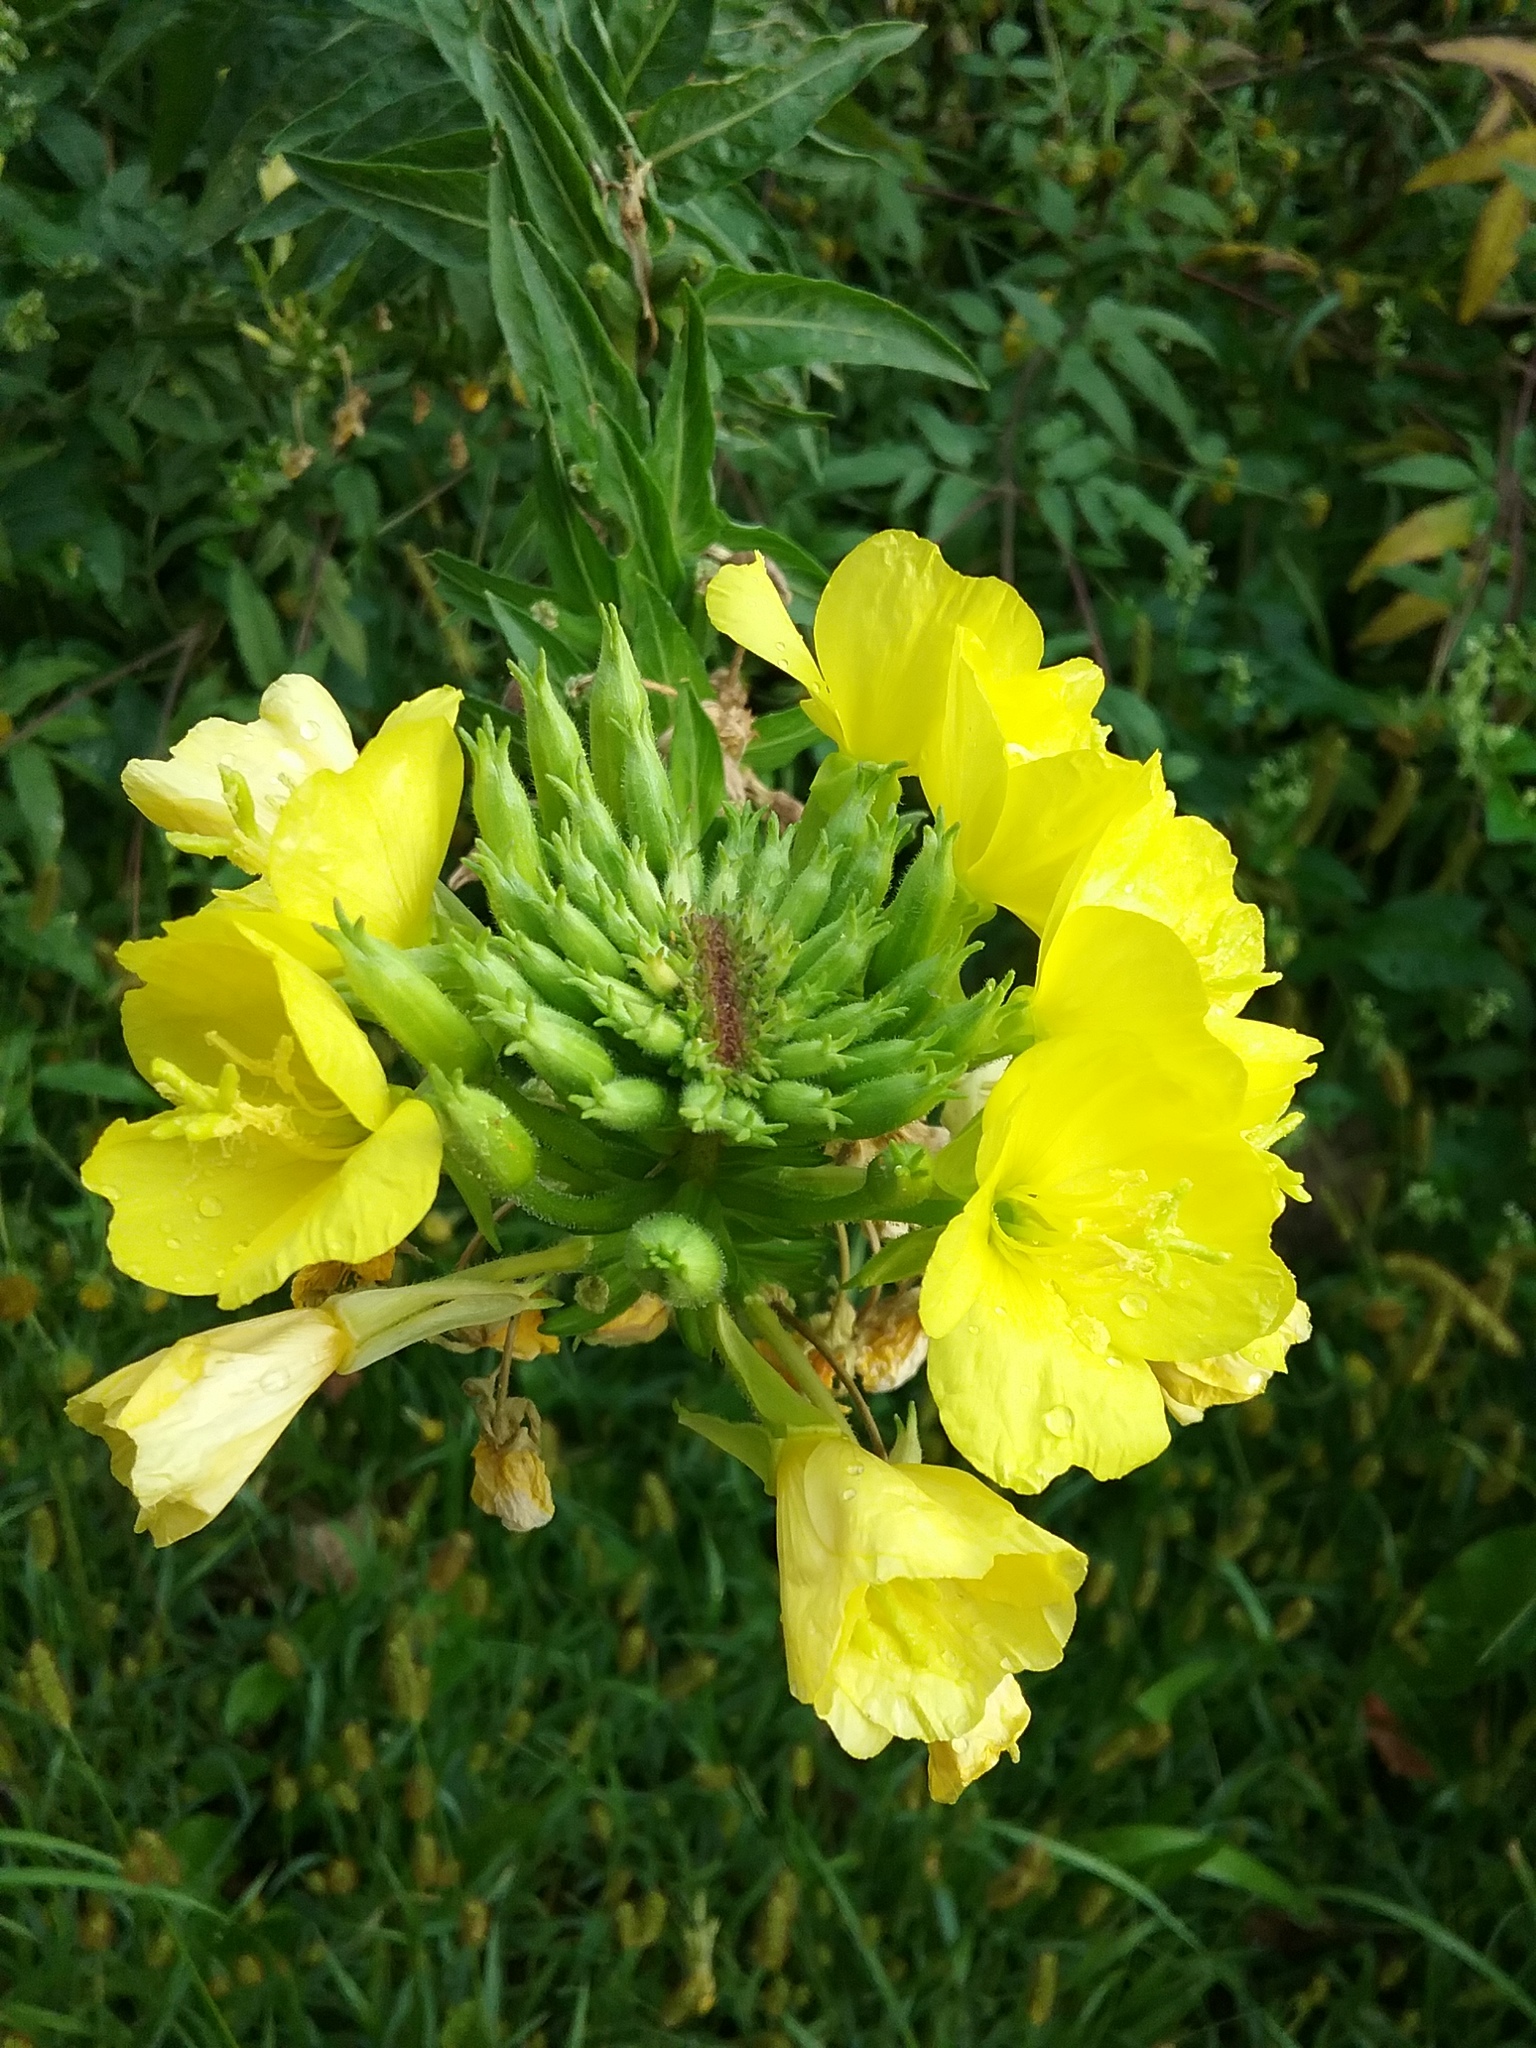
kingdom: Plantae
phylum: Tracheophyta
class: Magnoliopsida
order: Myrtales
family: Onagraceae
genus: Oenothera
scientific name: Oenothera biennis
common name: Common evening-primrose
